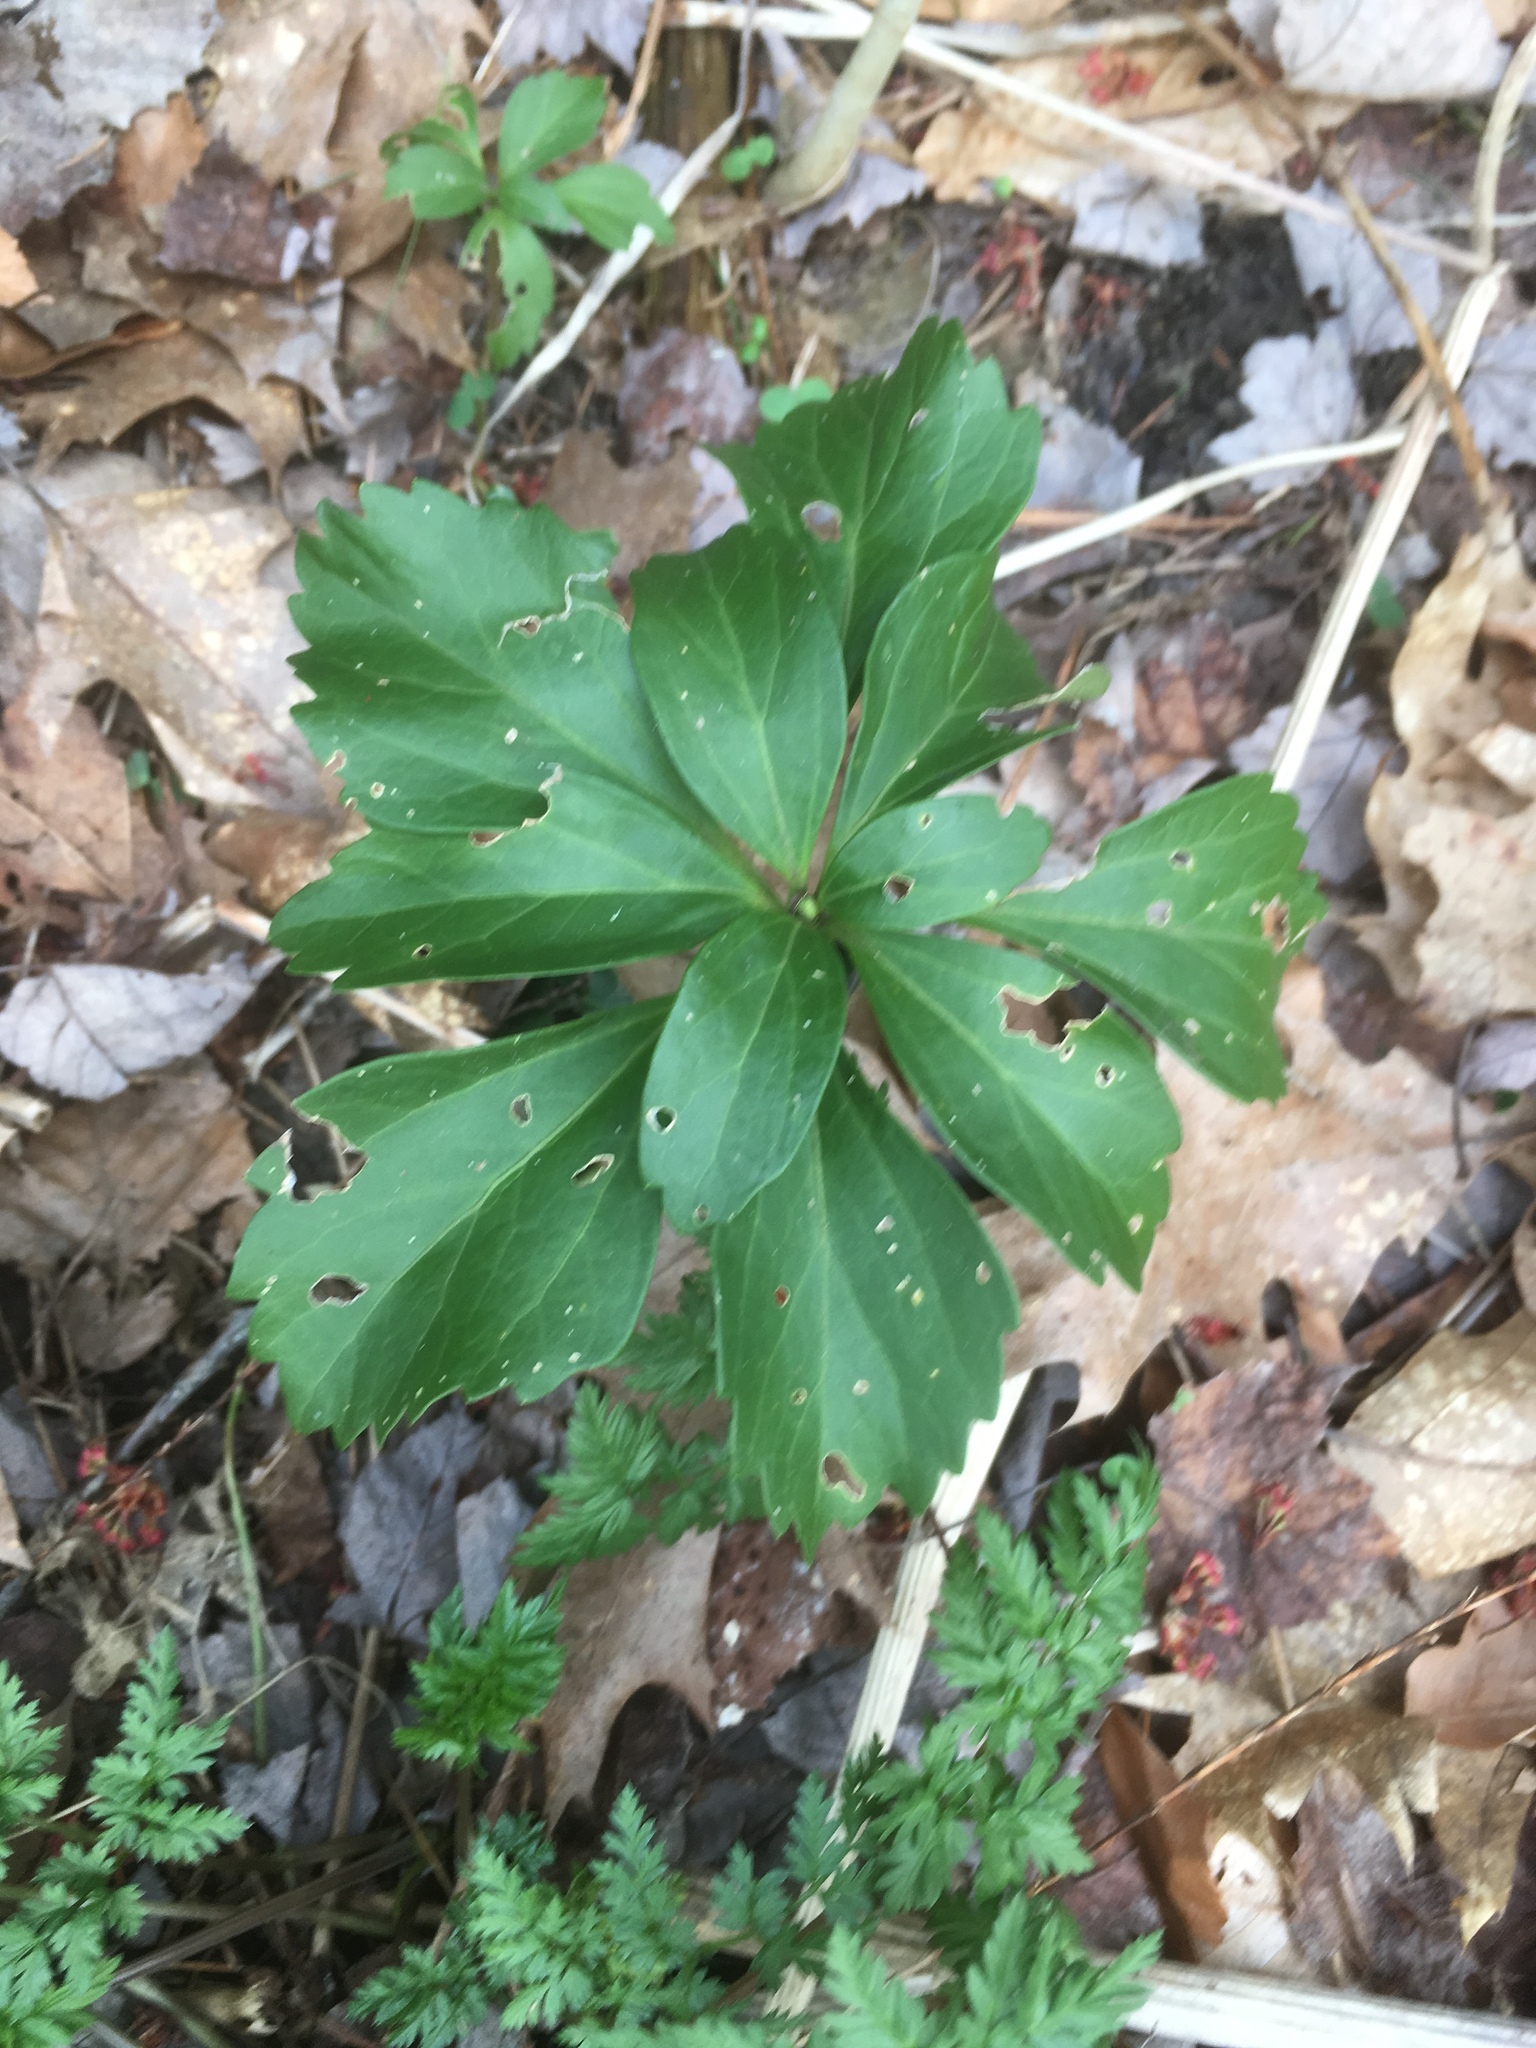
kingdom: Plantae
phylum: Tracheophyta
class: Magnoliopsida
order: Buxales
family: Buxaceae
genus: Pachysandra
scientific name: Pachysandra terminalis
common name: Japanese pachysandra
